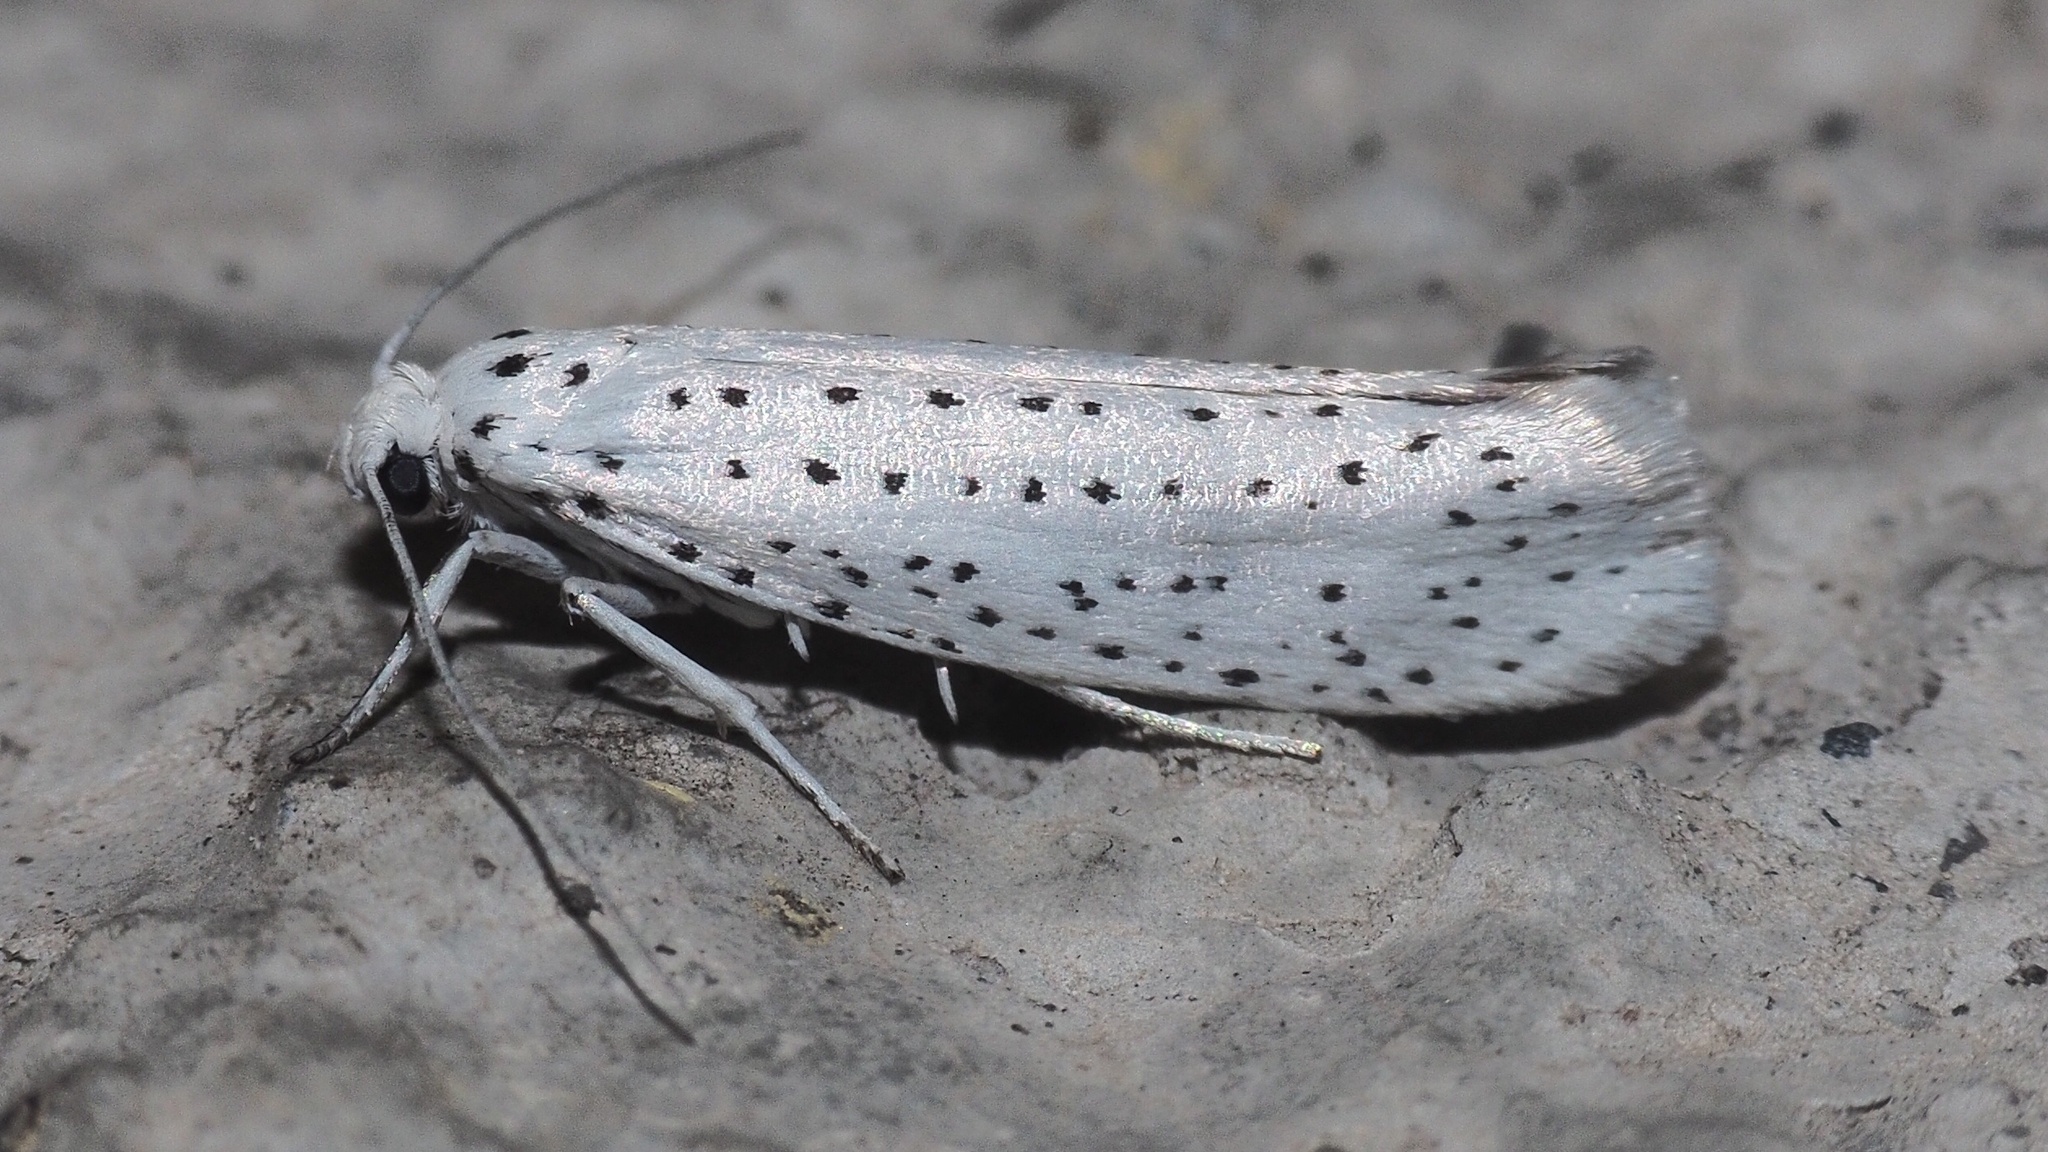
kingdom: Animalia
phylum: Arthropoda
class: Insecta
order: Lepidoptera
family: Yponomeutidae
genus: Yponomeuta
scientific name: Yponomeuta evonymella
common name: Bird-cherry ermine
